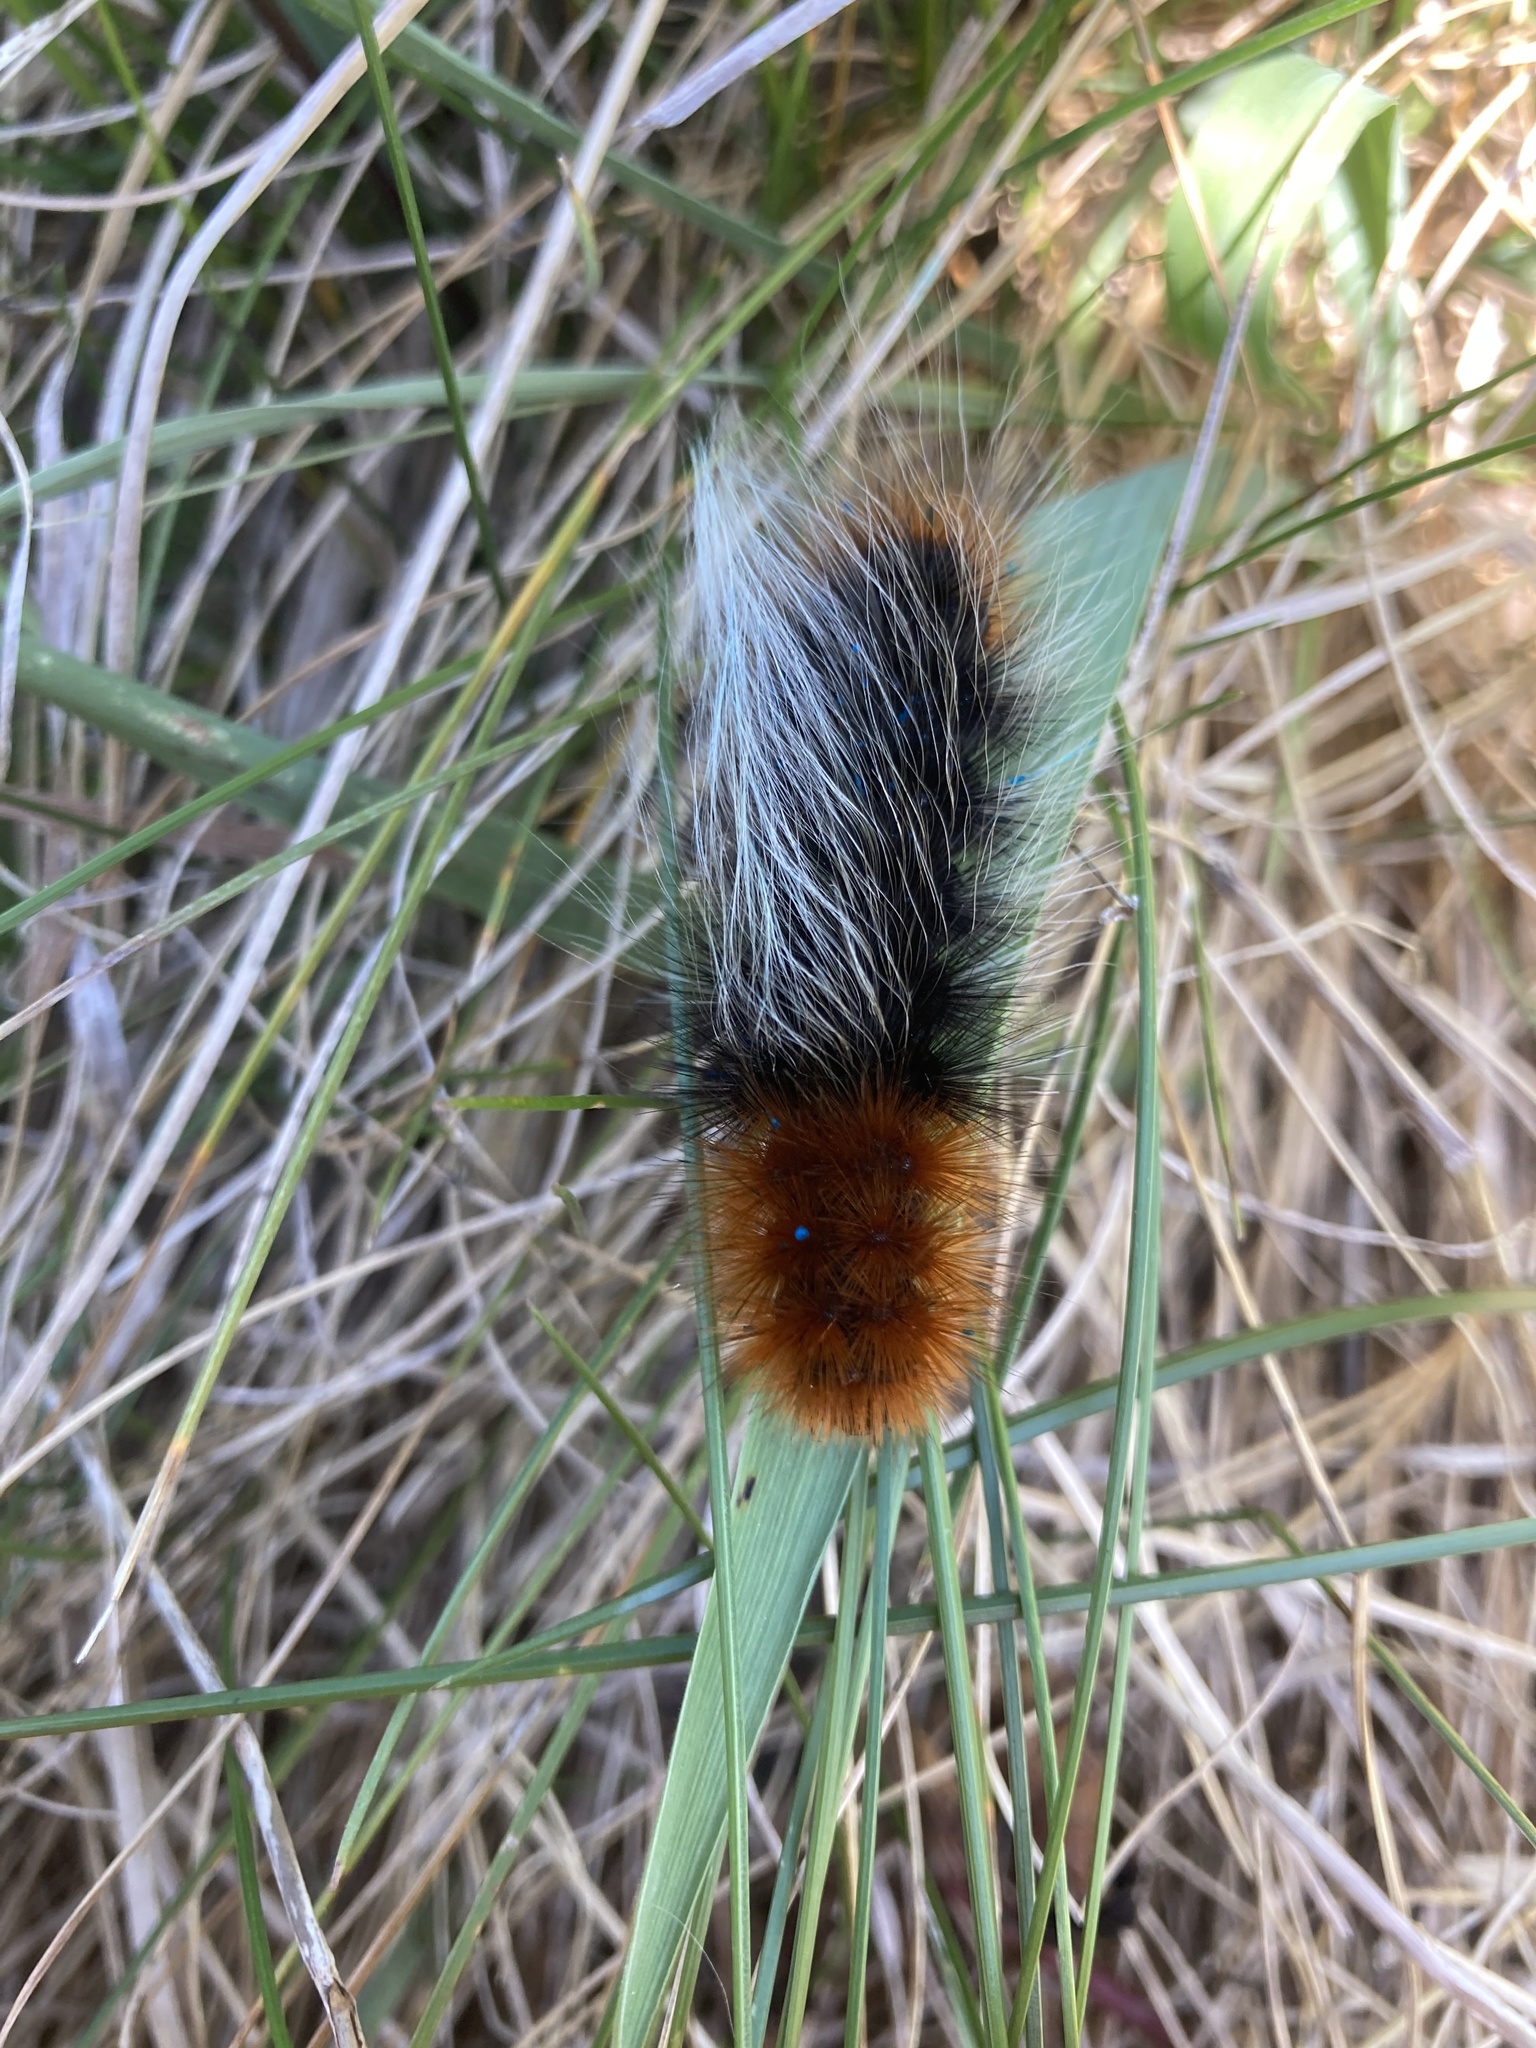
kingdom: Animalia
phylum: Arthropoda
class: Insecta
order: Lepidoptera
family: Erebidae
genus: Arctia
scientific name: Arctia tigrina
